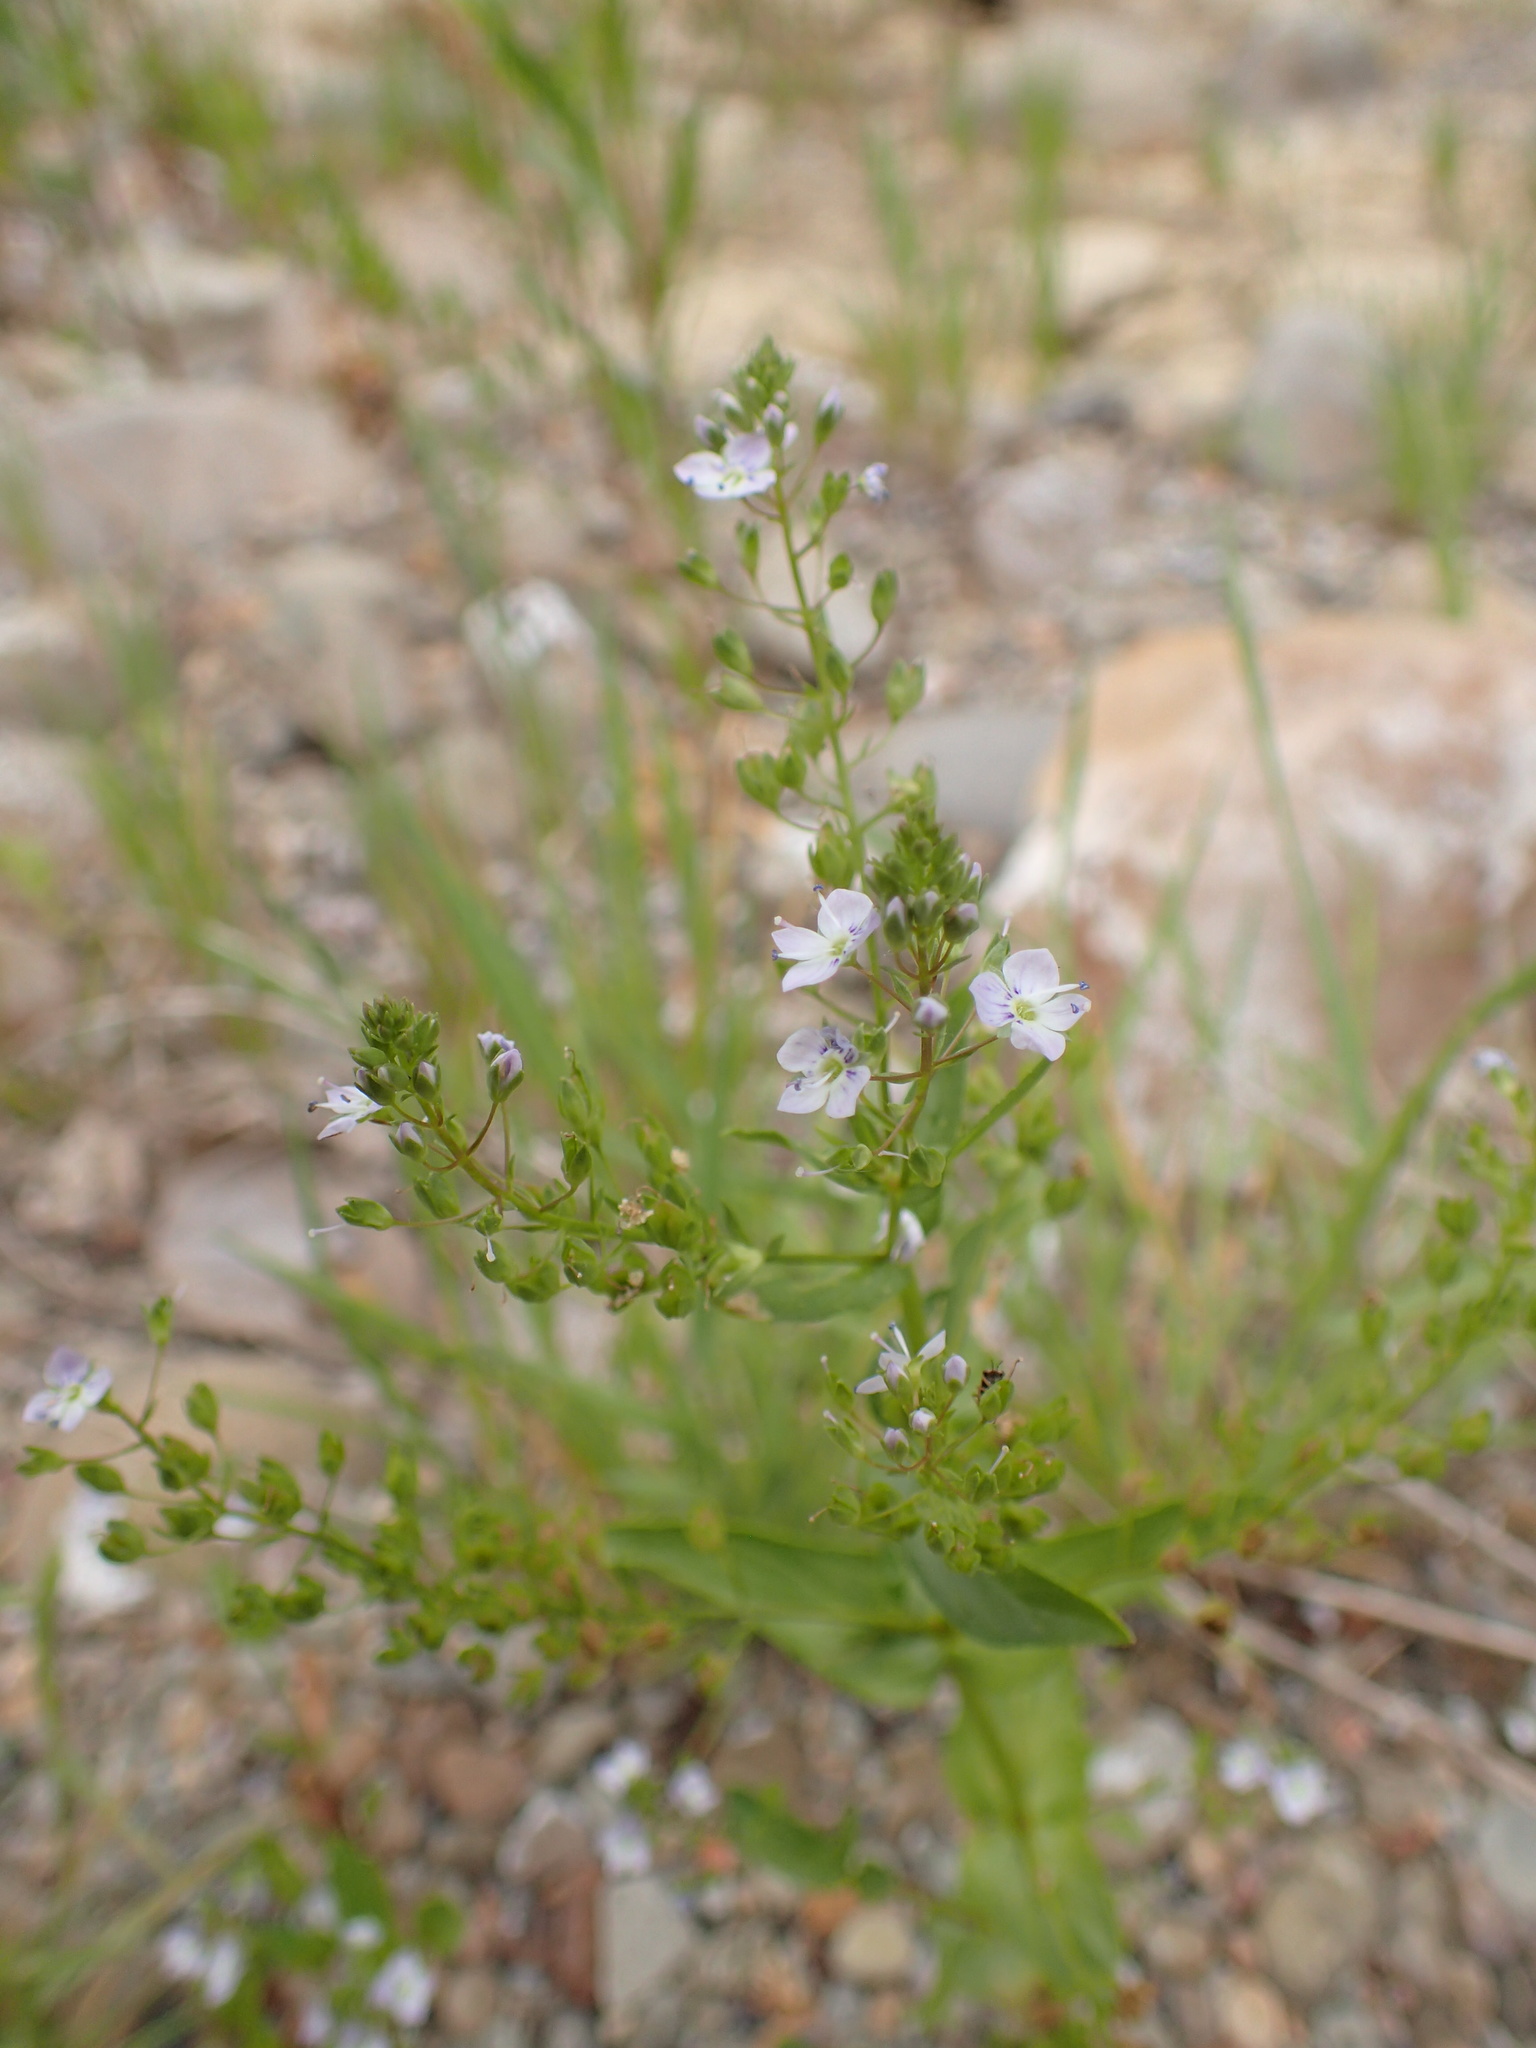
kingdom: Plantae
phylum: Tracheophyta
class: Magnoliopsida
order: Lamiales
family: Plantaginaceae
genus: Veronica
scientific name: Veronica anagallis-aquatica
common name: Water speedwell
